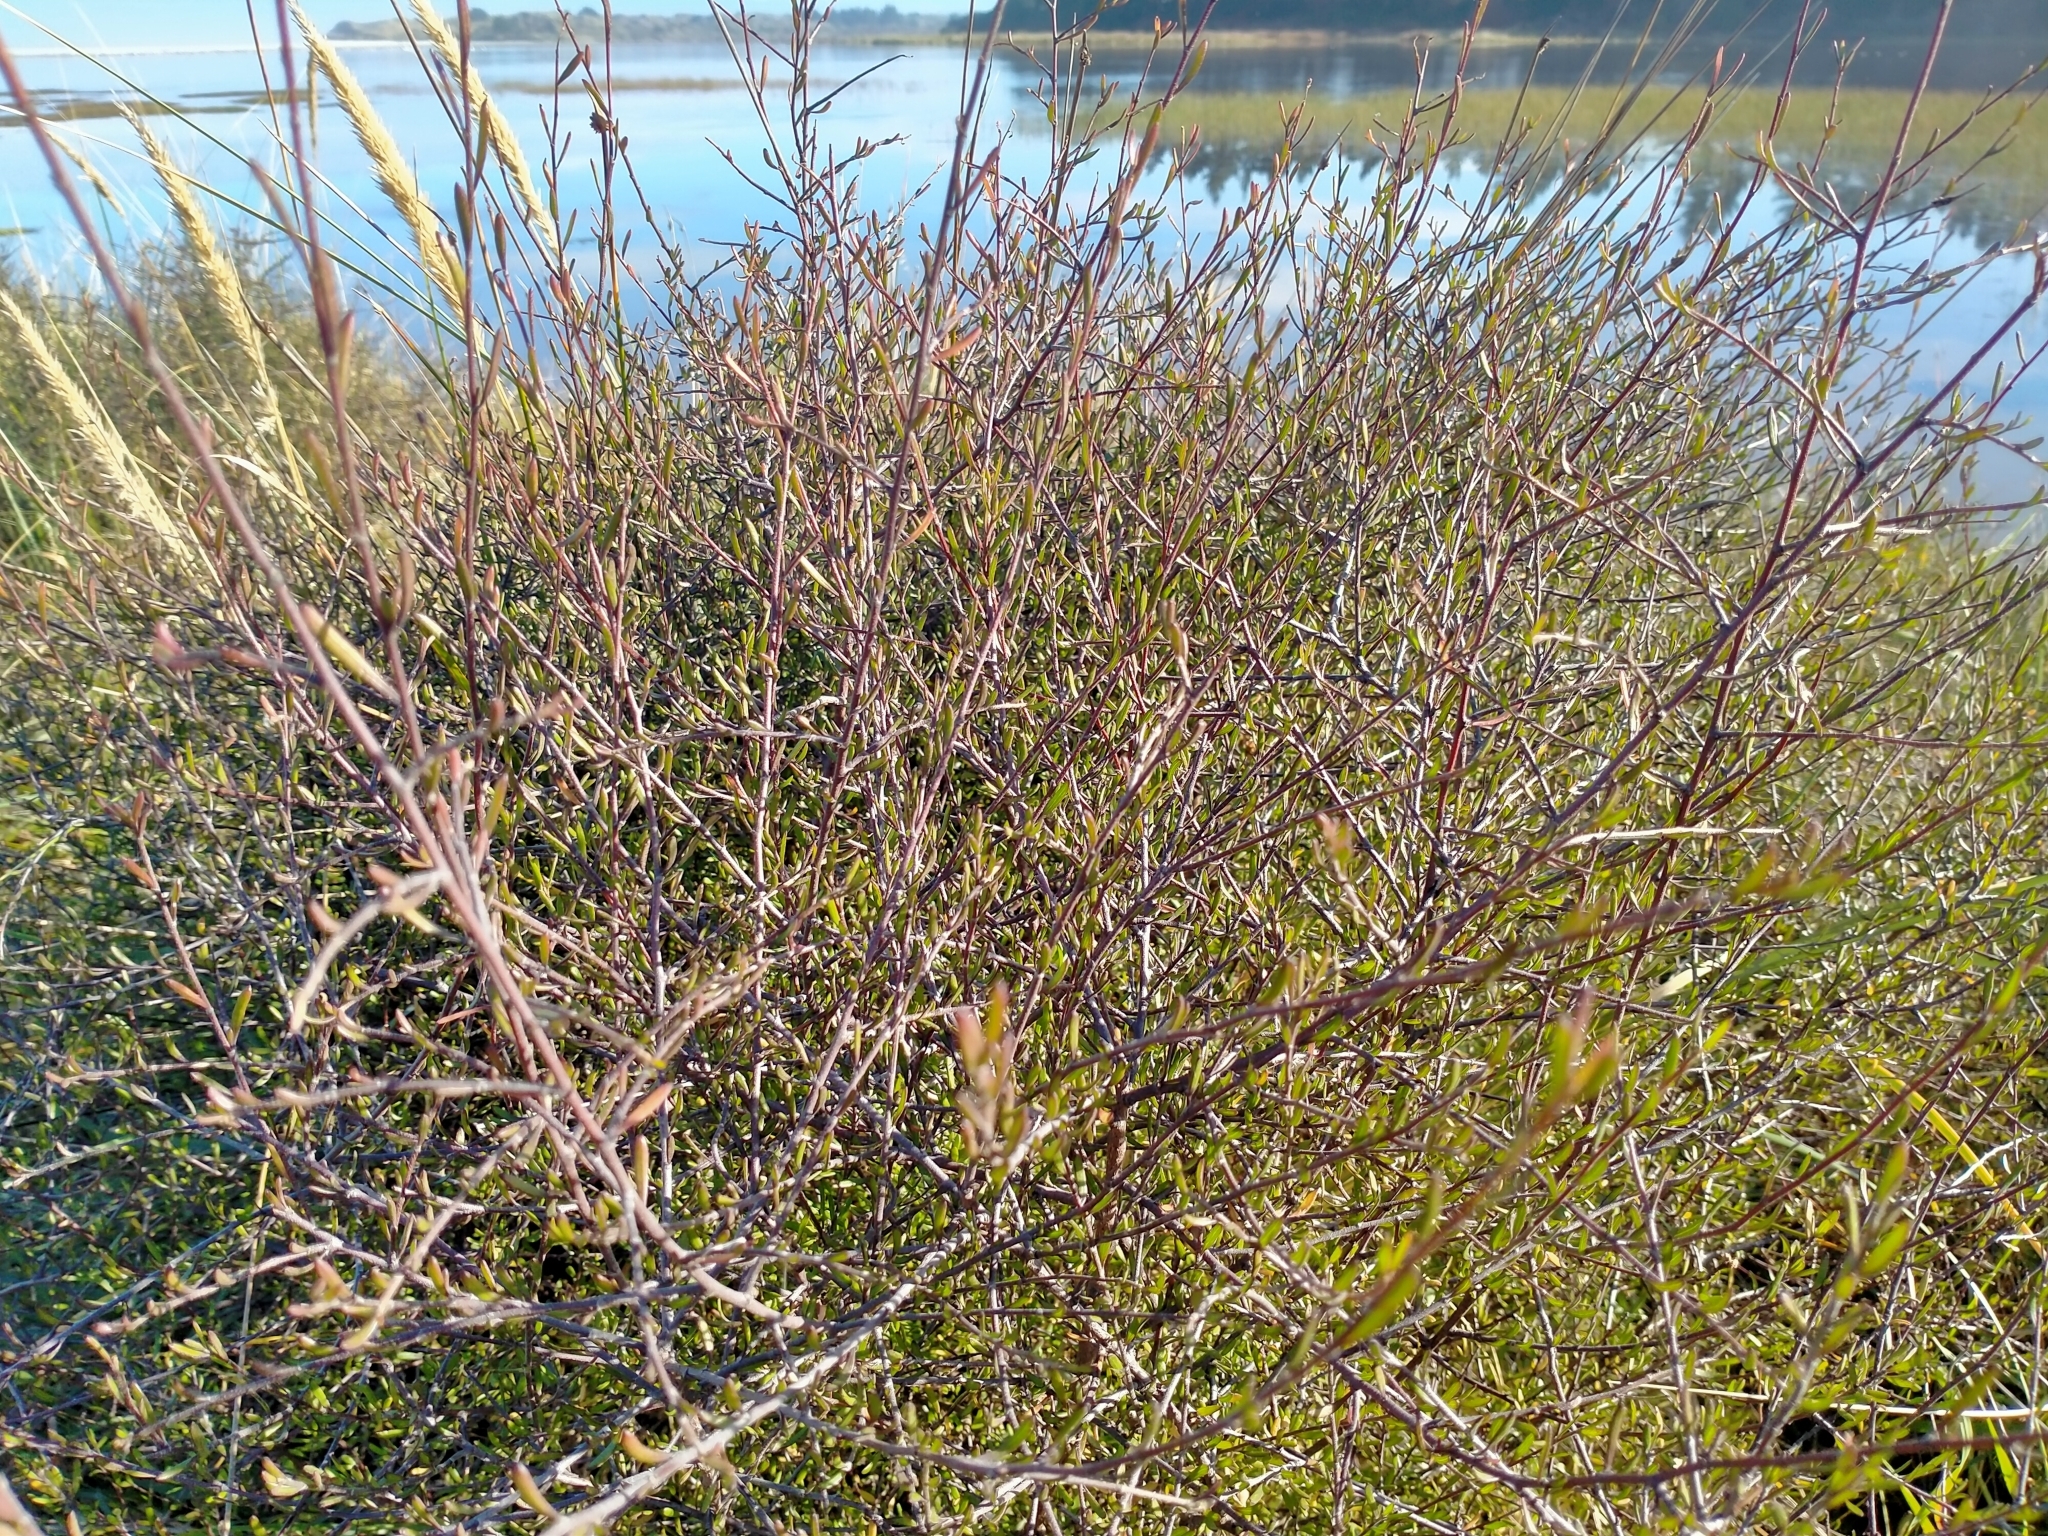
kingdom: Plantae
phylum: Tracheophyta
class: Magnoliopsida
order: Malvales
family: Malvaceae
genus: Plagianthus
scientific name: Plagianthus divaricatus
